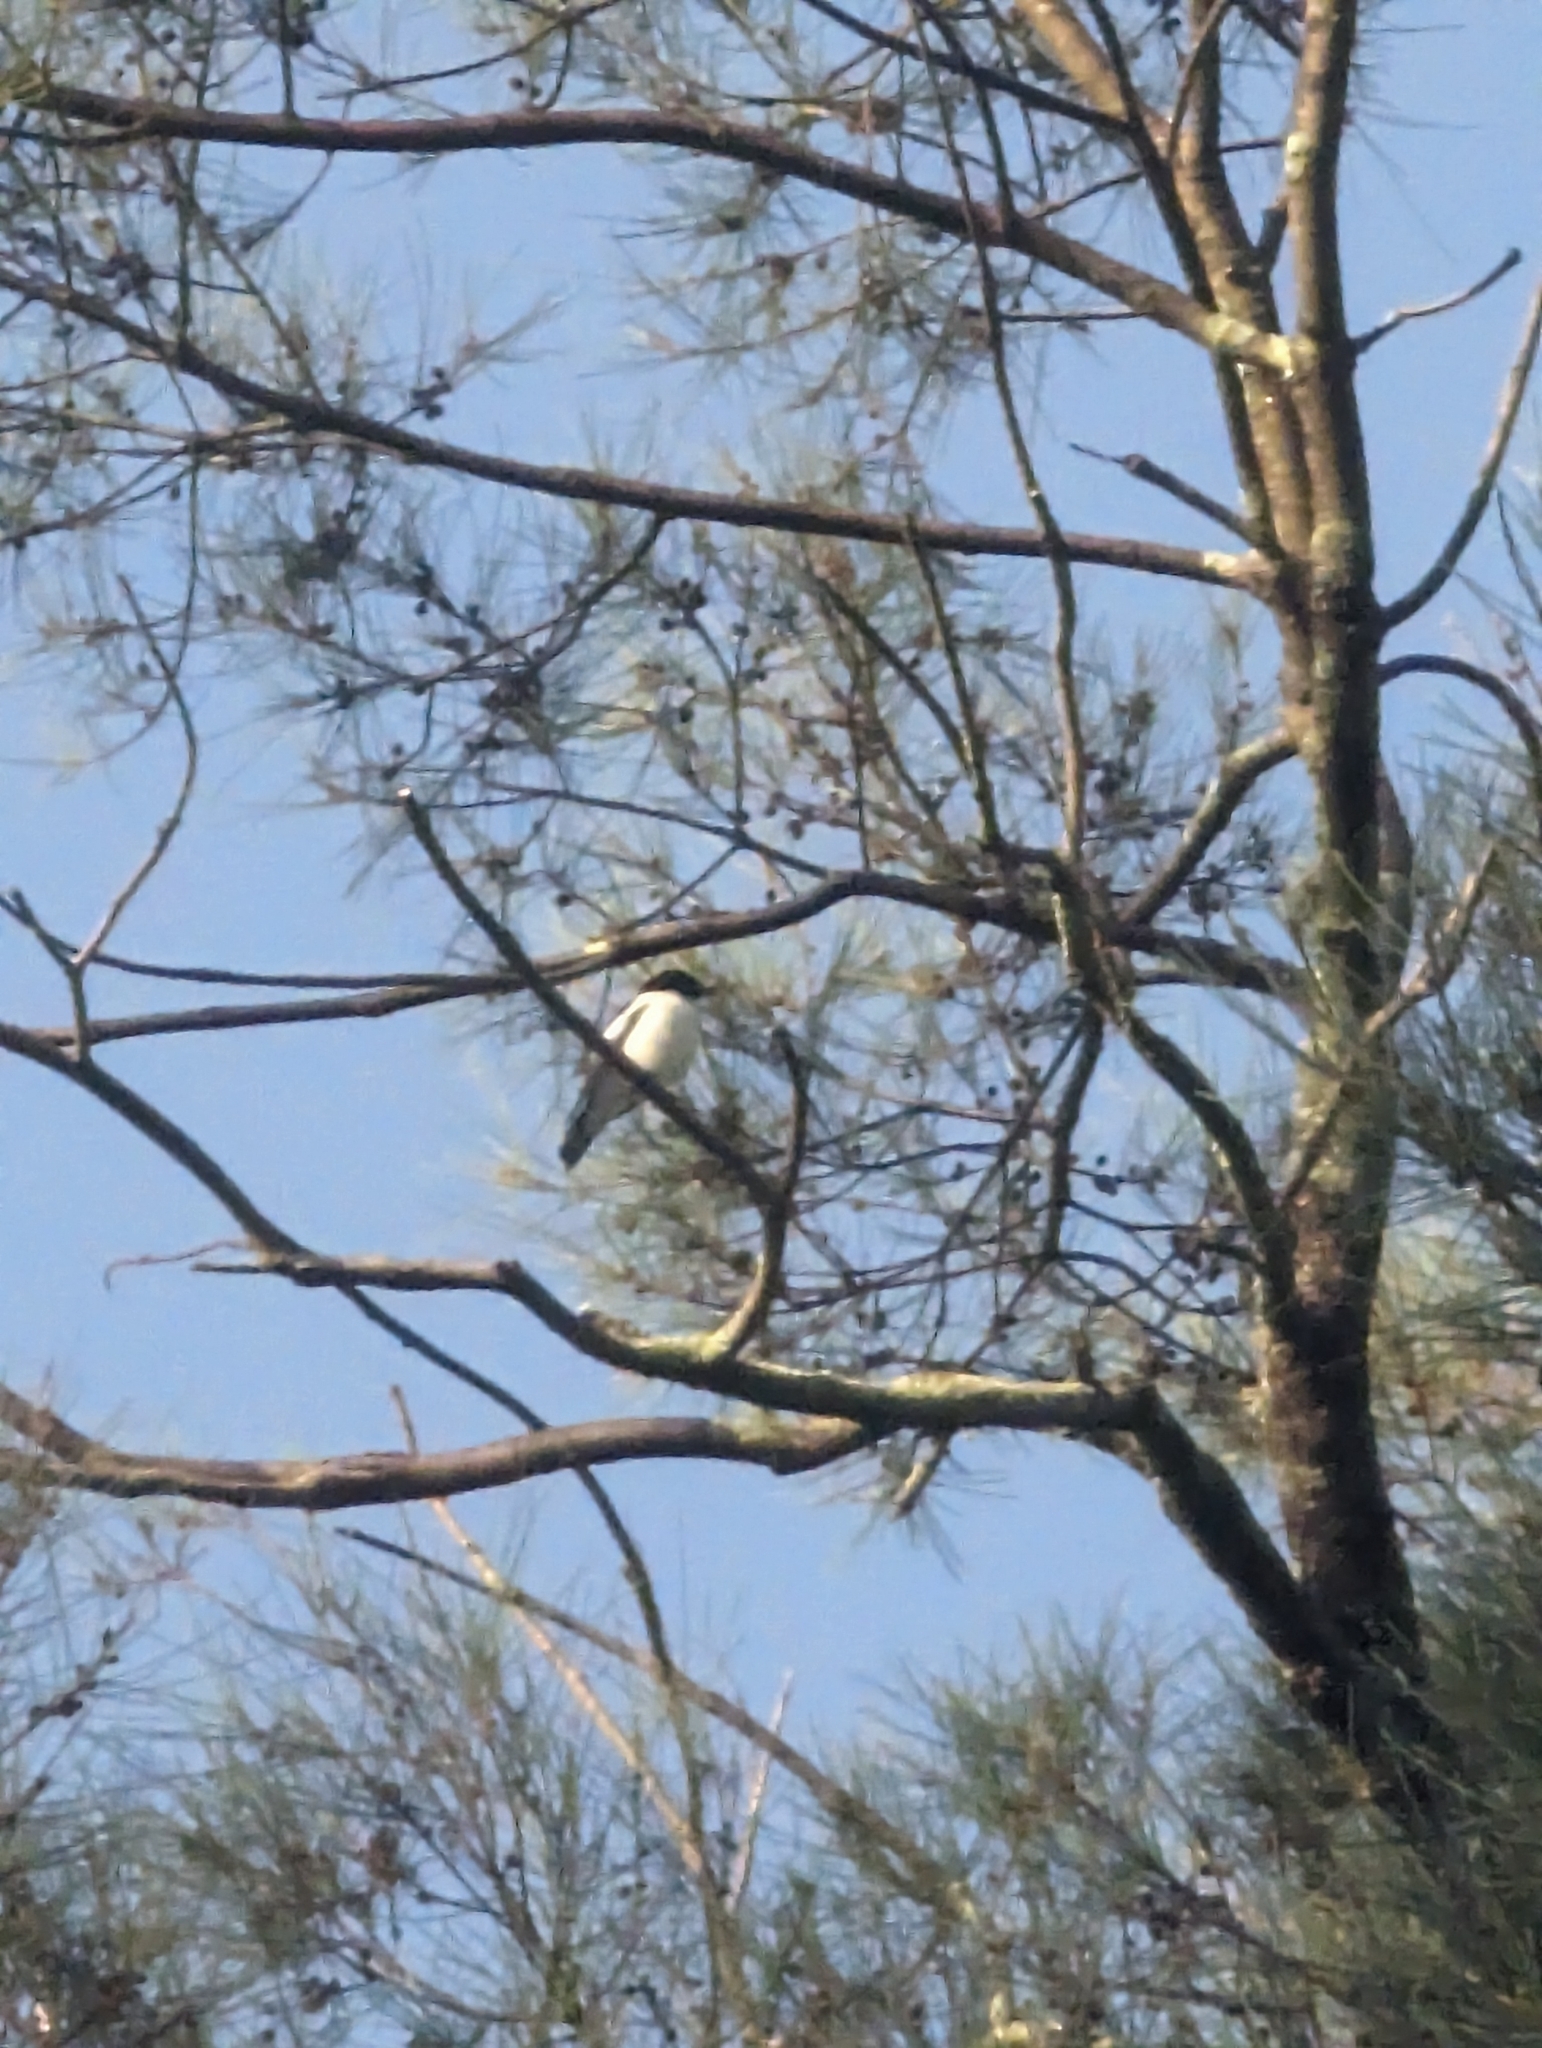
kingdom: Animalia
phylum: Chordata
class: Aves
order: Passeriformes
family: Campephagidae
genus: Lalage
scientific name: Lalage tricolor
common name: White-winged triller
